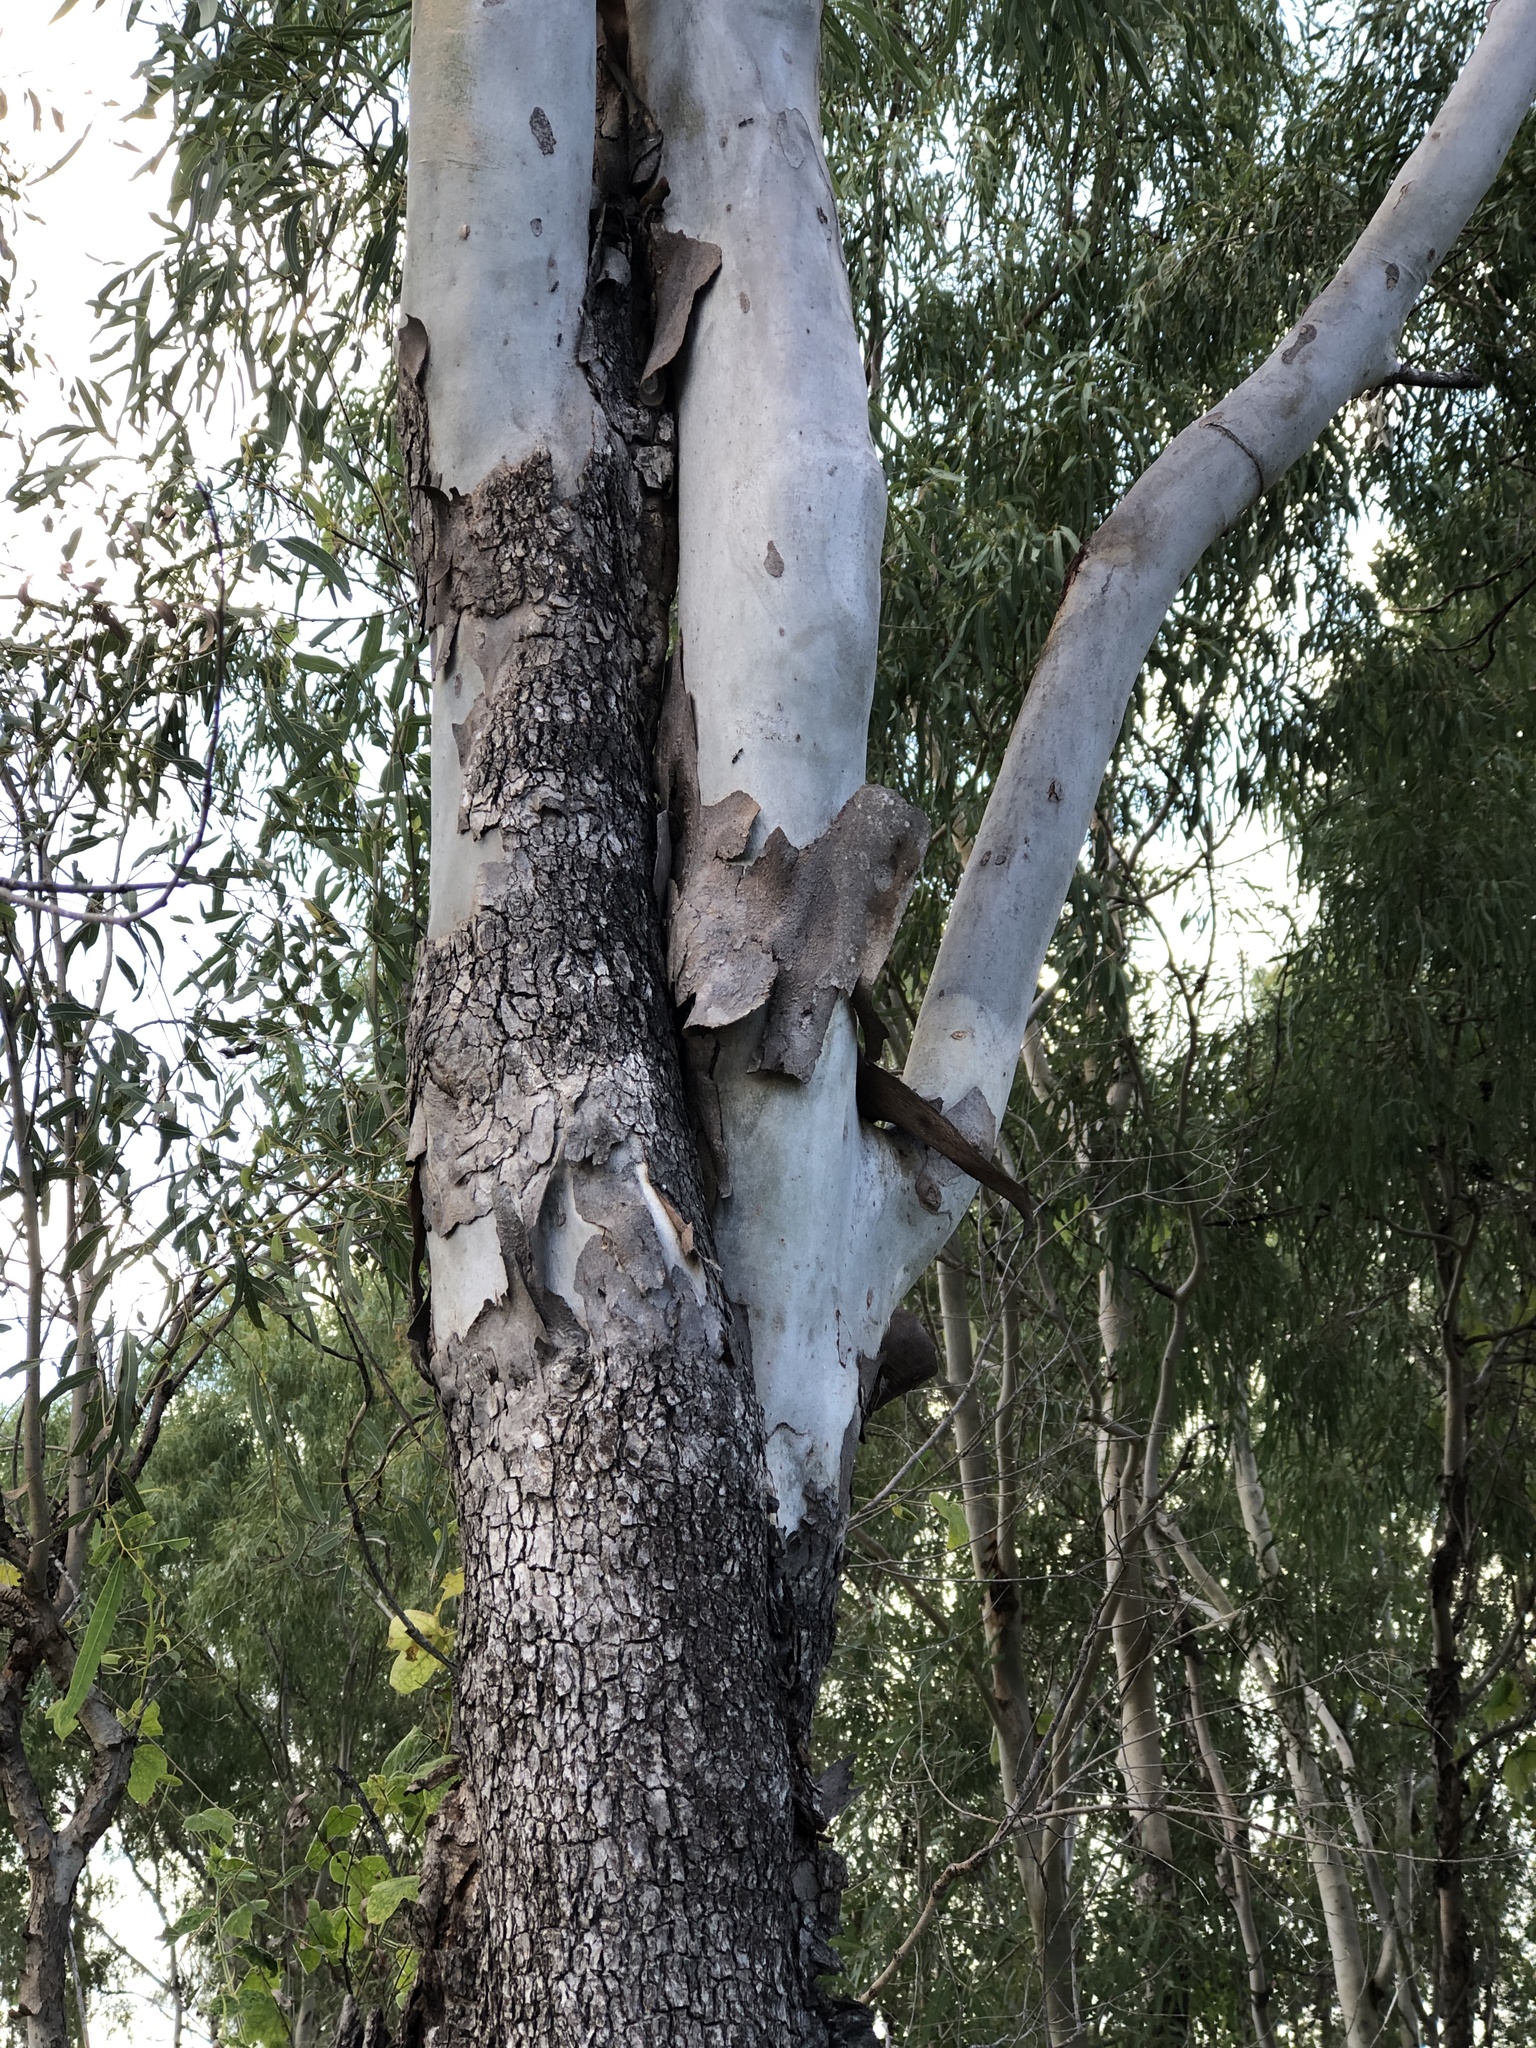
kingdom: Plantae
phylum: Tracheophyta
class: Magnoliopsida
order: Myrtales
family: Myrtaceae
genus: Corymbia
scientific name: Corymbia tessellaris
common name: Carbeen
